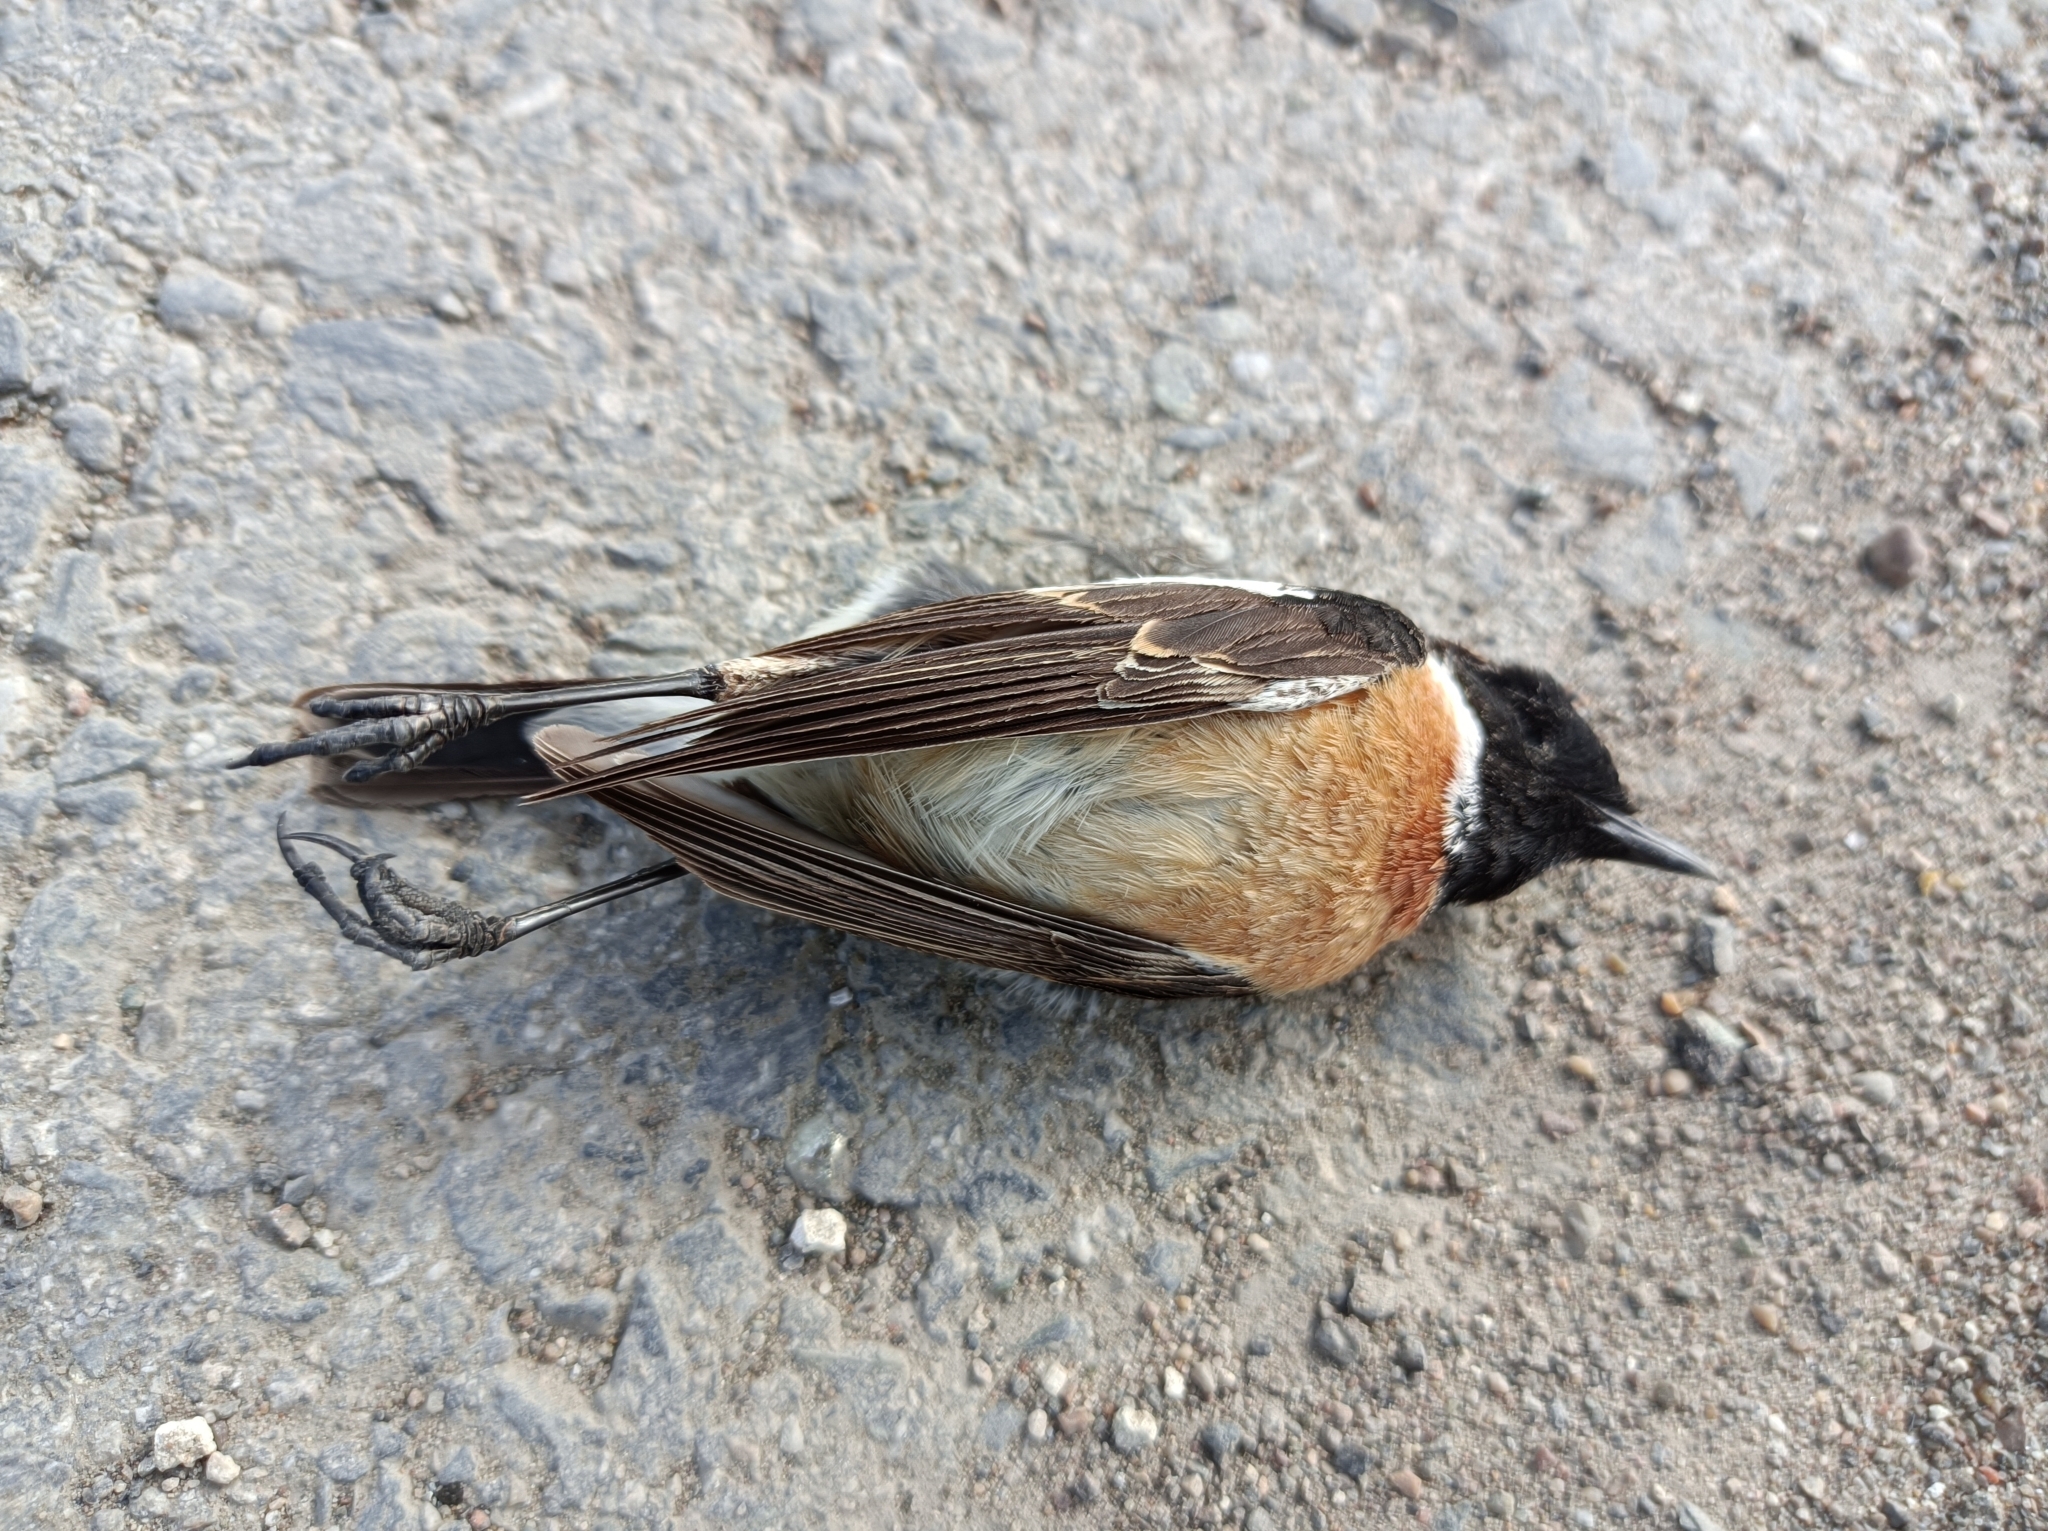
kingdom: Animalia
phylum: Chordata
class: Aves
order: Passeriformes
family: Muscicapidae
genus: Saxicola
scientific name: Saxicola maurus
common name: Siberian stonechat
